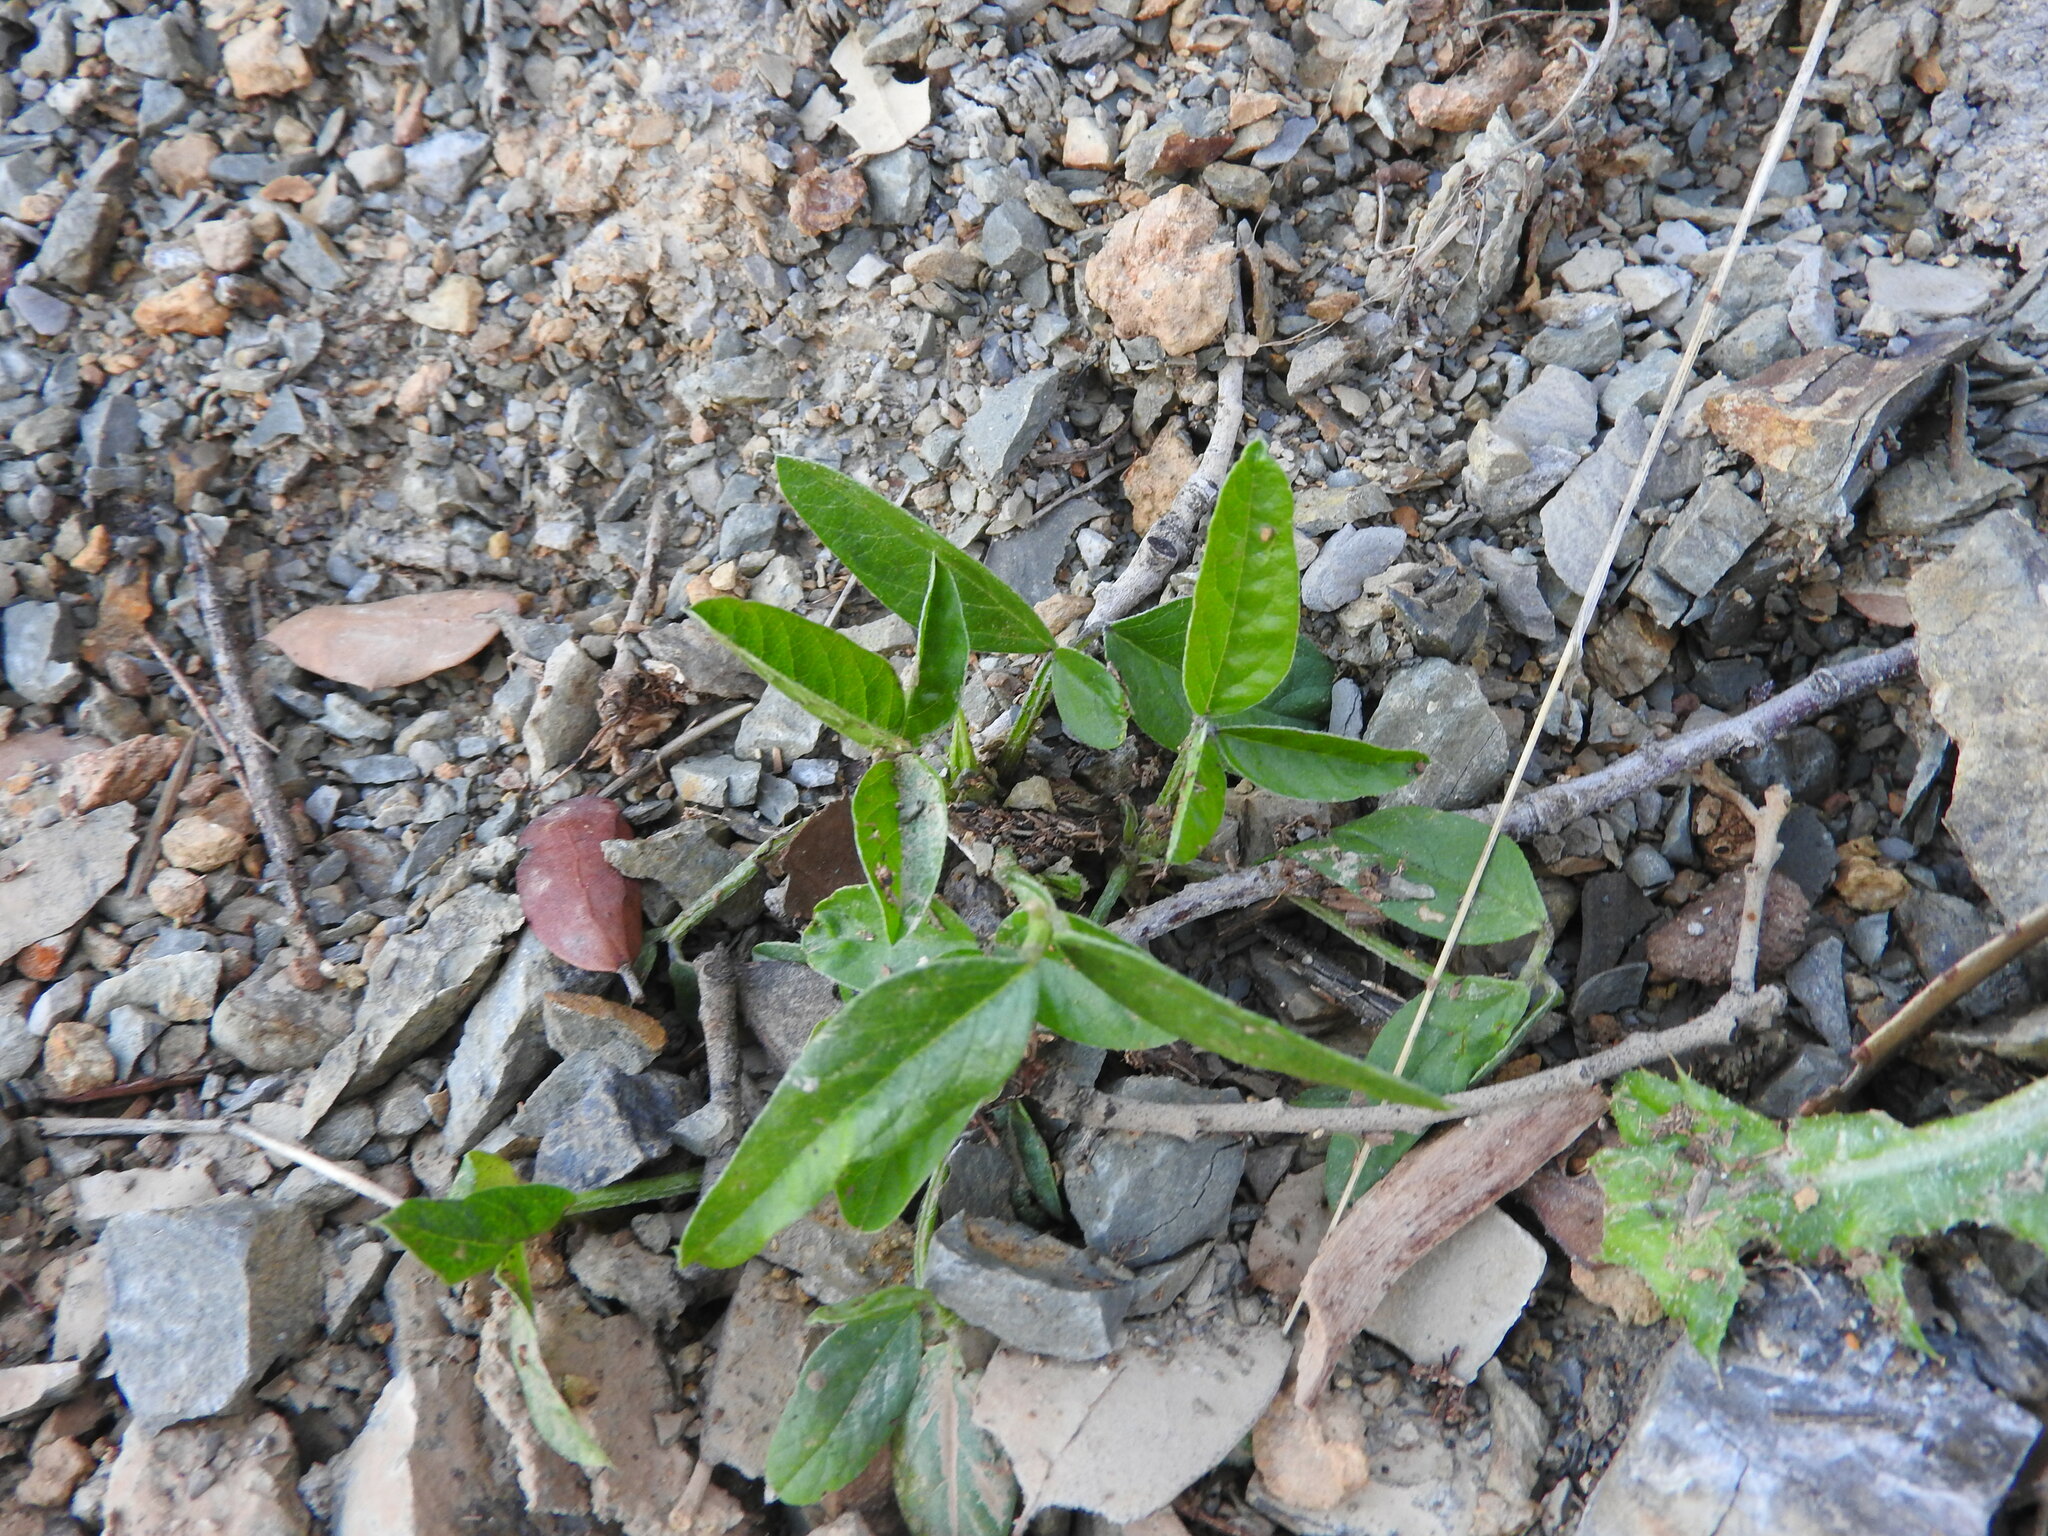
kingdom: Plantae
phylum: Tracheophyta
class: Magnoliopsida
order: Fabales
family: Fabaceae
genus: Bituminaria
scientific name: Bituminaria bituminosa
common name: Arabian pea
